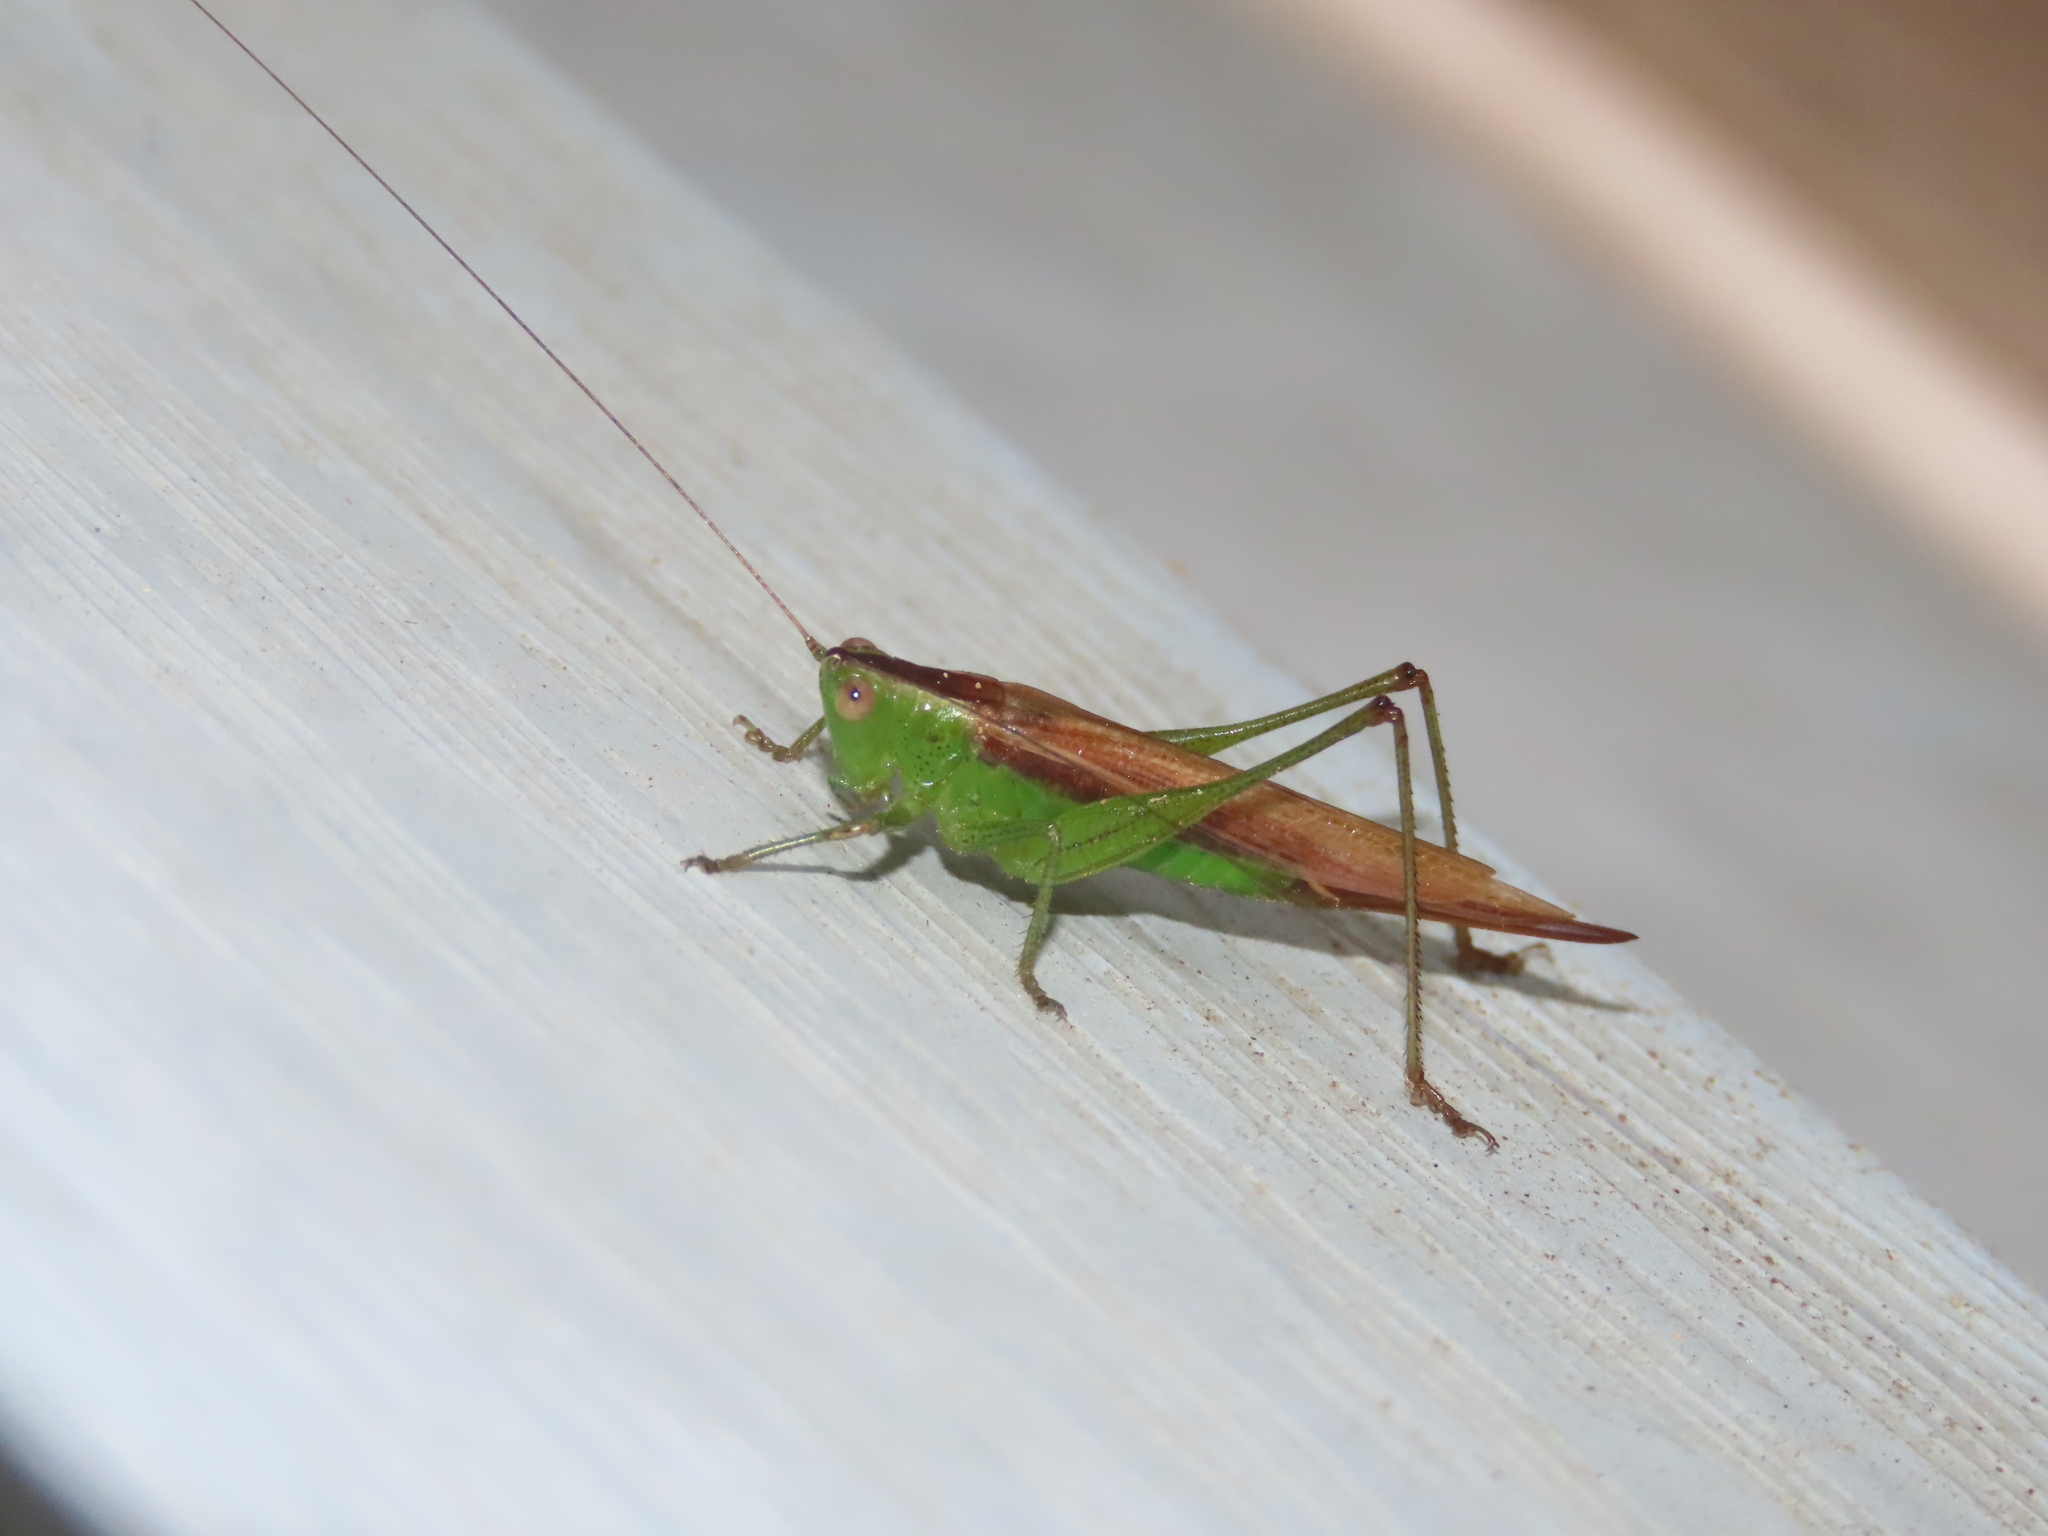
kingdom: Animalia
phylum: Arthropoda
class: Insecta
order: Orthoptera
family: Tettigoniidae
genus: Conocephalus
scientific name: Conocephalus brevipennis
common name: Short-winged meadow katydid
